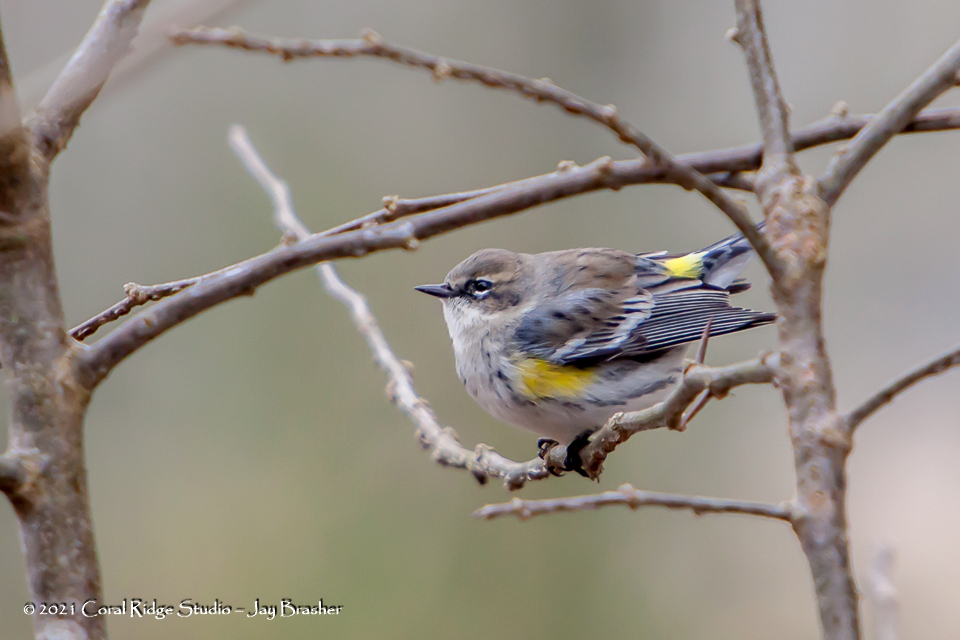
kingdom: Animalia
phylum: Chordata
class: Aves
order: Passeriformes
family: Parulidae
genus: Setophaga
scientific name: Setophaga coronata
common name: Myrtle warbler
